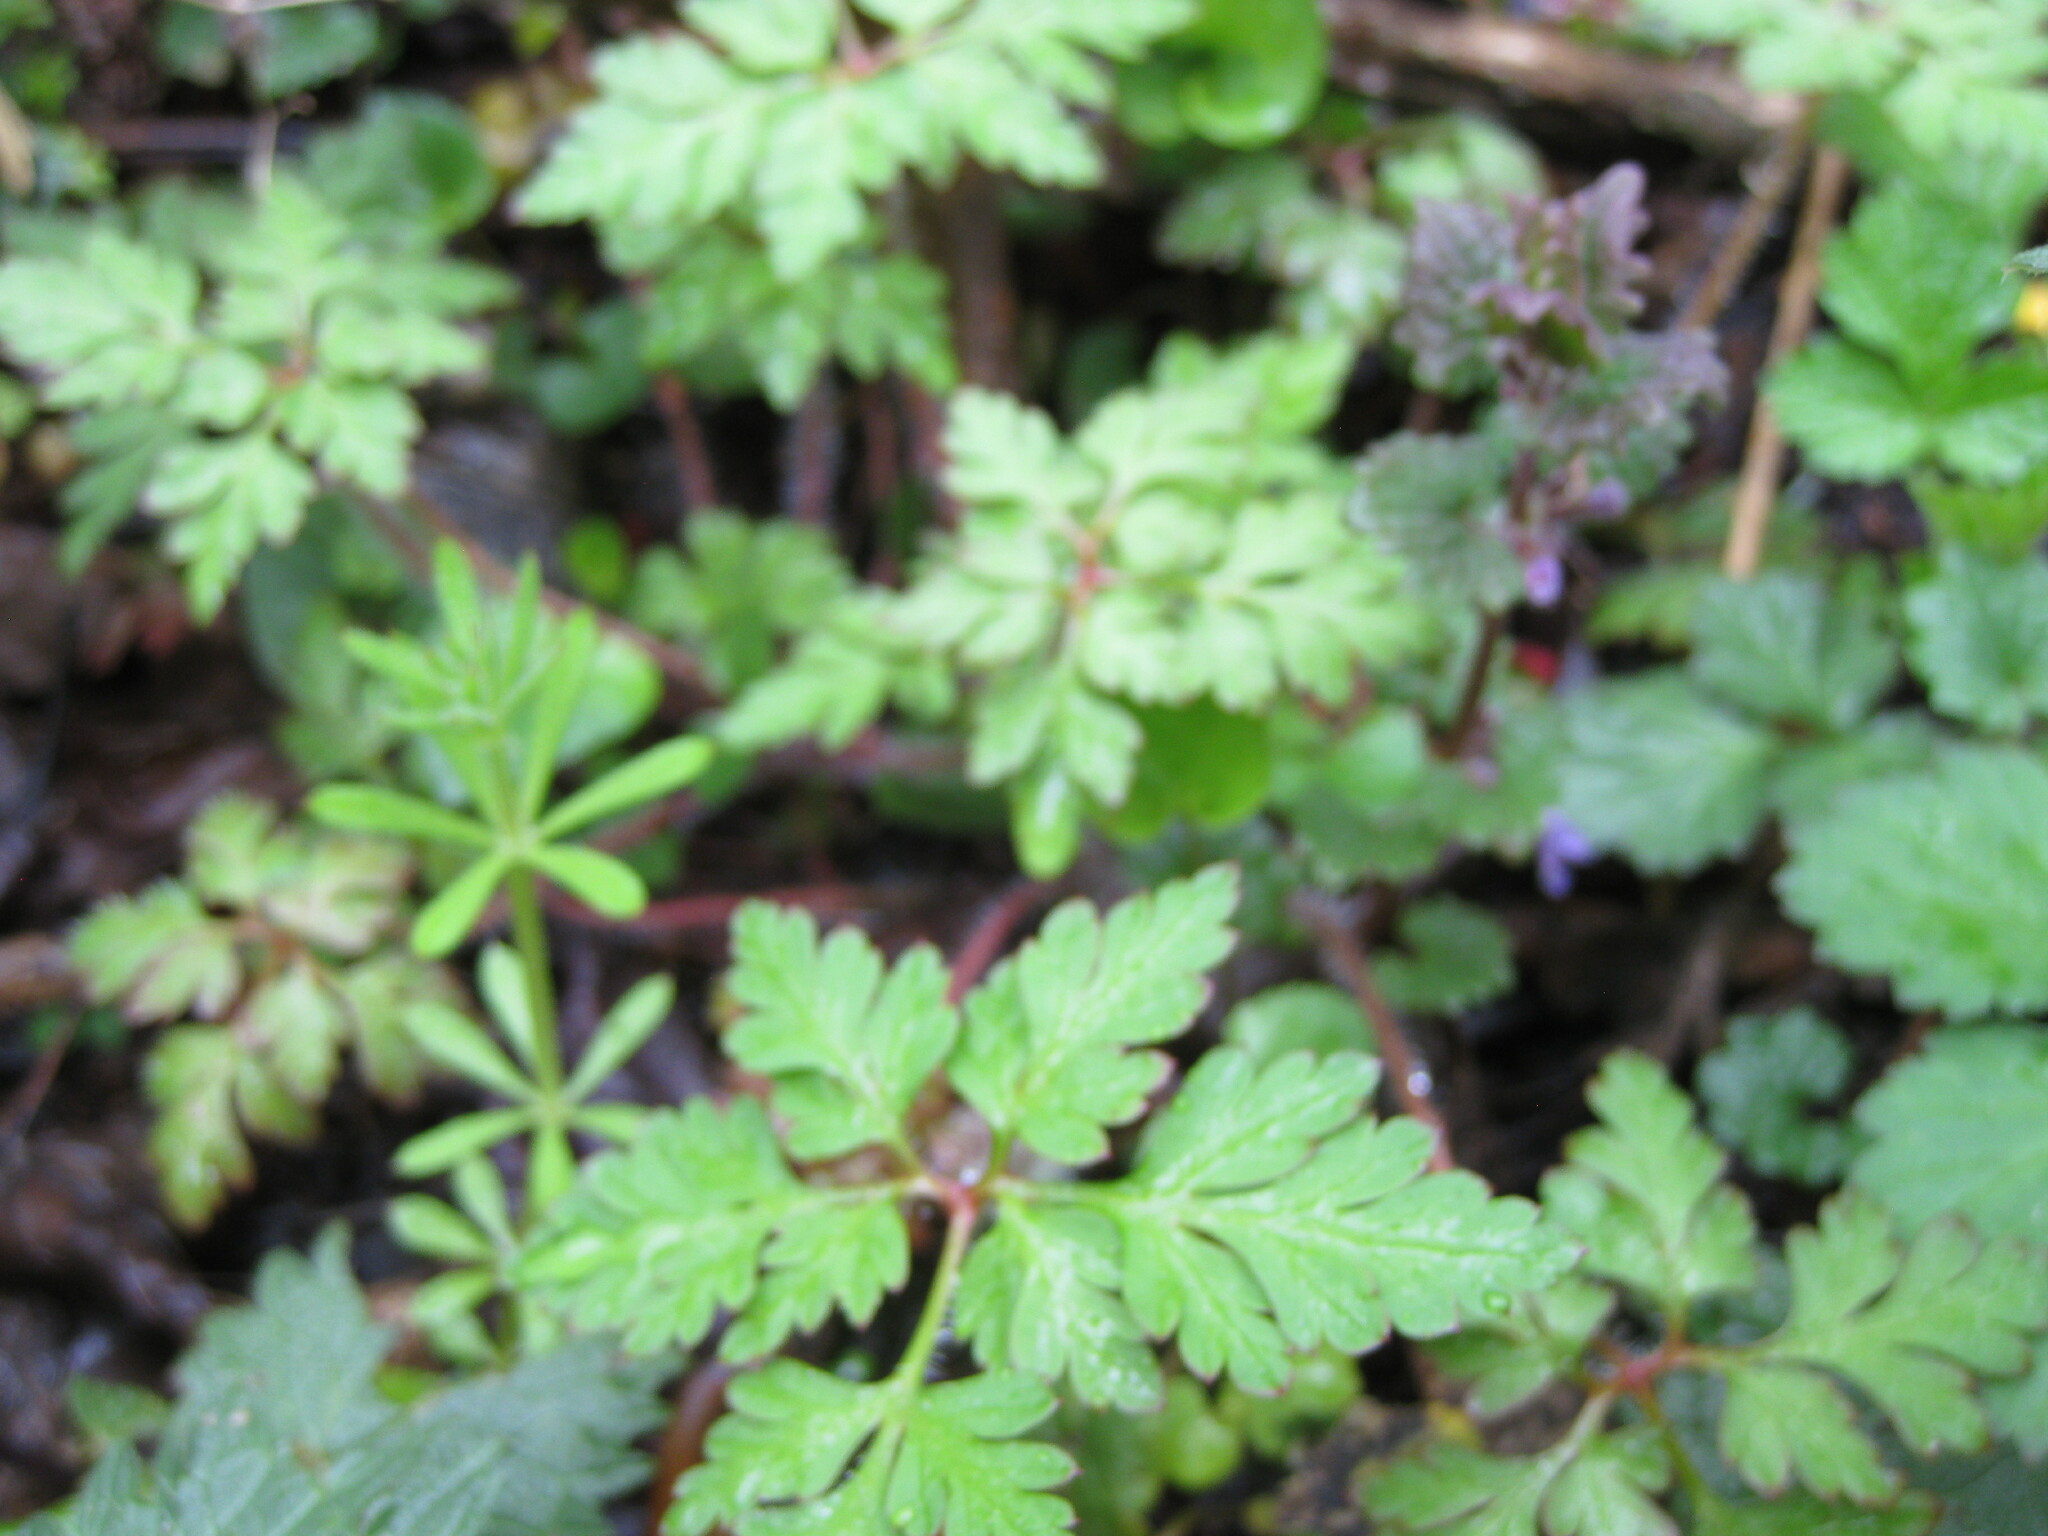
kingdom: Plantae
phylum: Tracheophyta
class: Magnoliopsida
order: Geraniales
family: Geraniaceae
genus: Geranium
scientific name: Geranium robertianum
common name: Herb-robert
